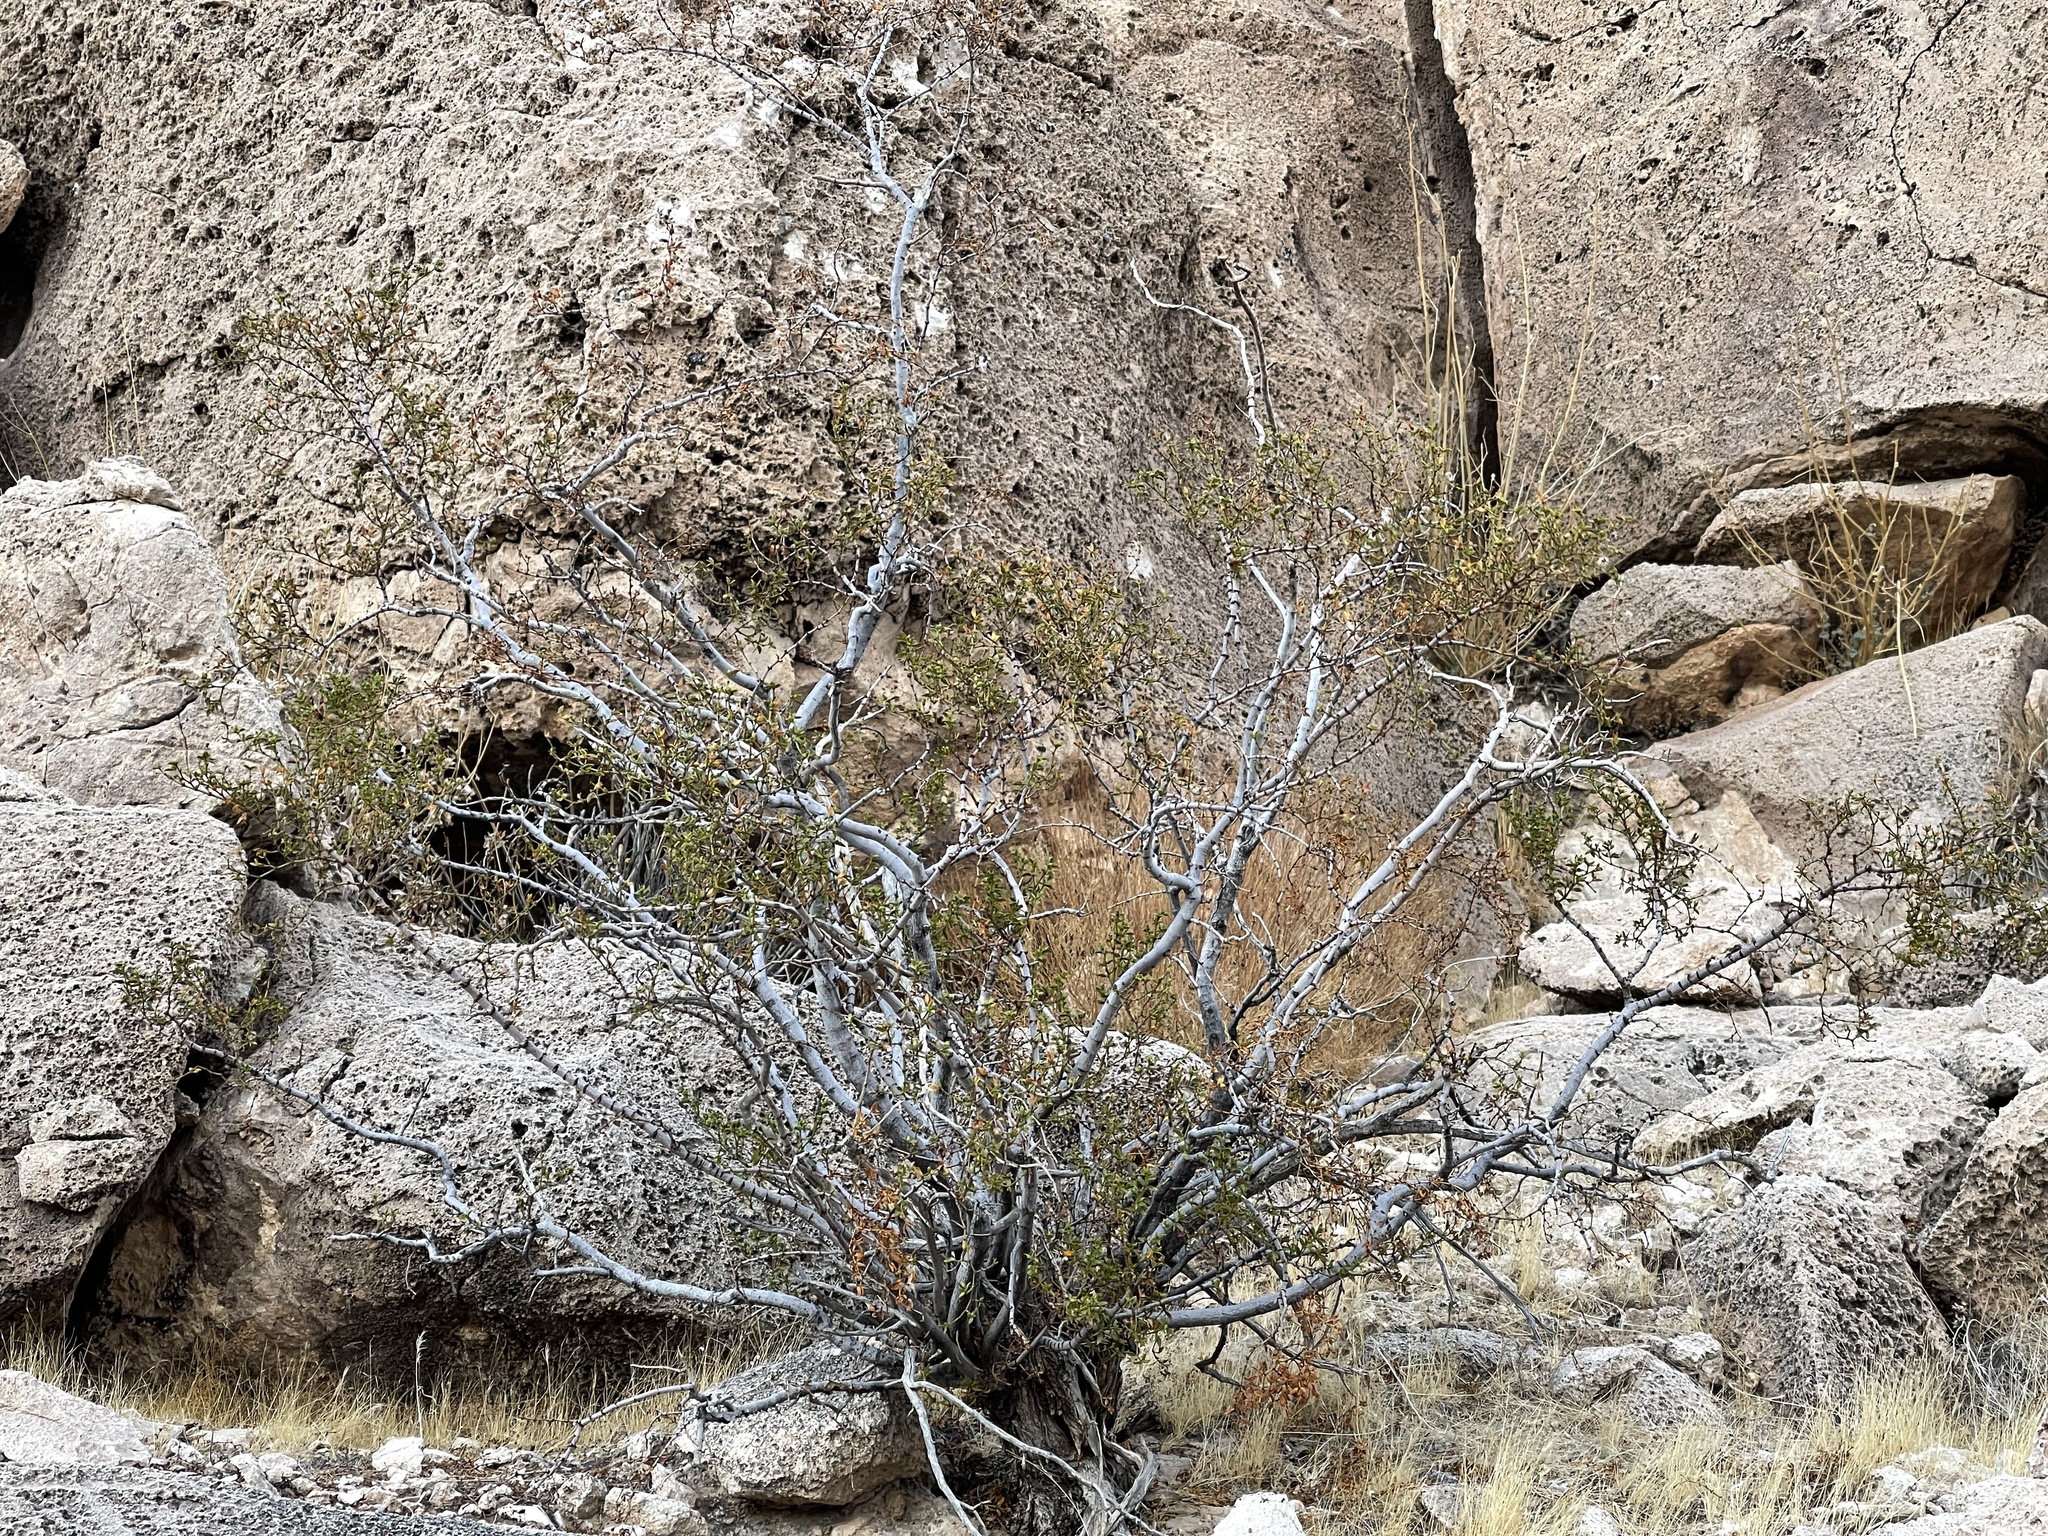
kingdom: Plantae
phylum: Tracheophyta
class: Magnoliopsida
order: Zygophyllales
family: Zygophyllaceae
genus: Larrea
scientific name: Larrea tridentata
